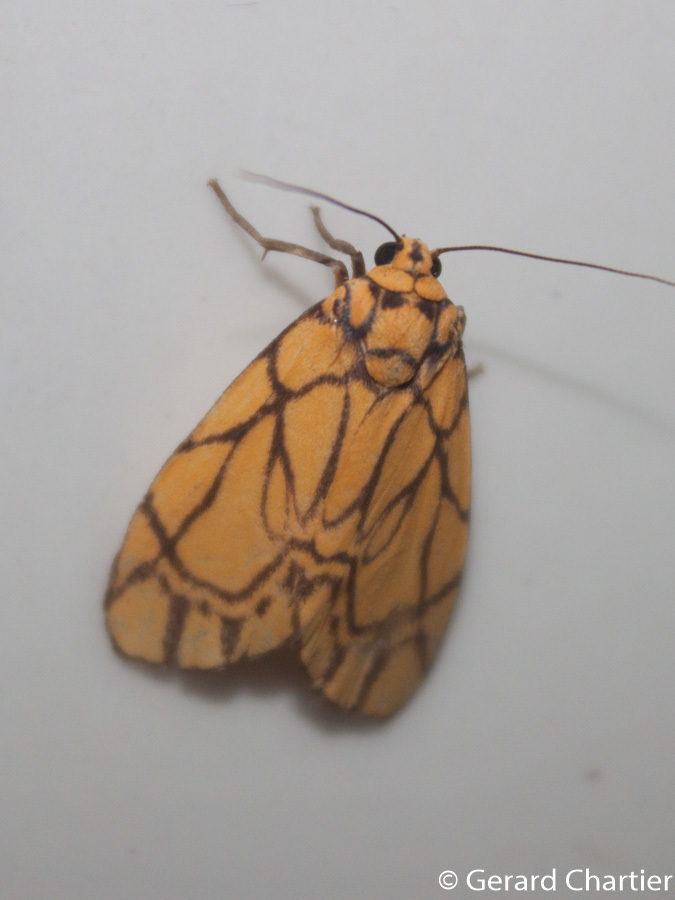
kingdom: Animalia
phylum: Arthropoda
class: Insecta
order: Lepidoptera
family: Erebidae
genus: Cyme
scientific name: Cyme euprepioides
